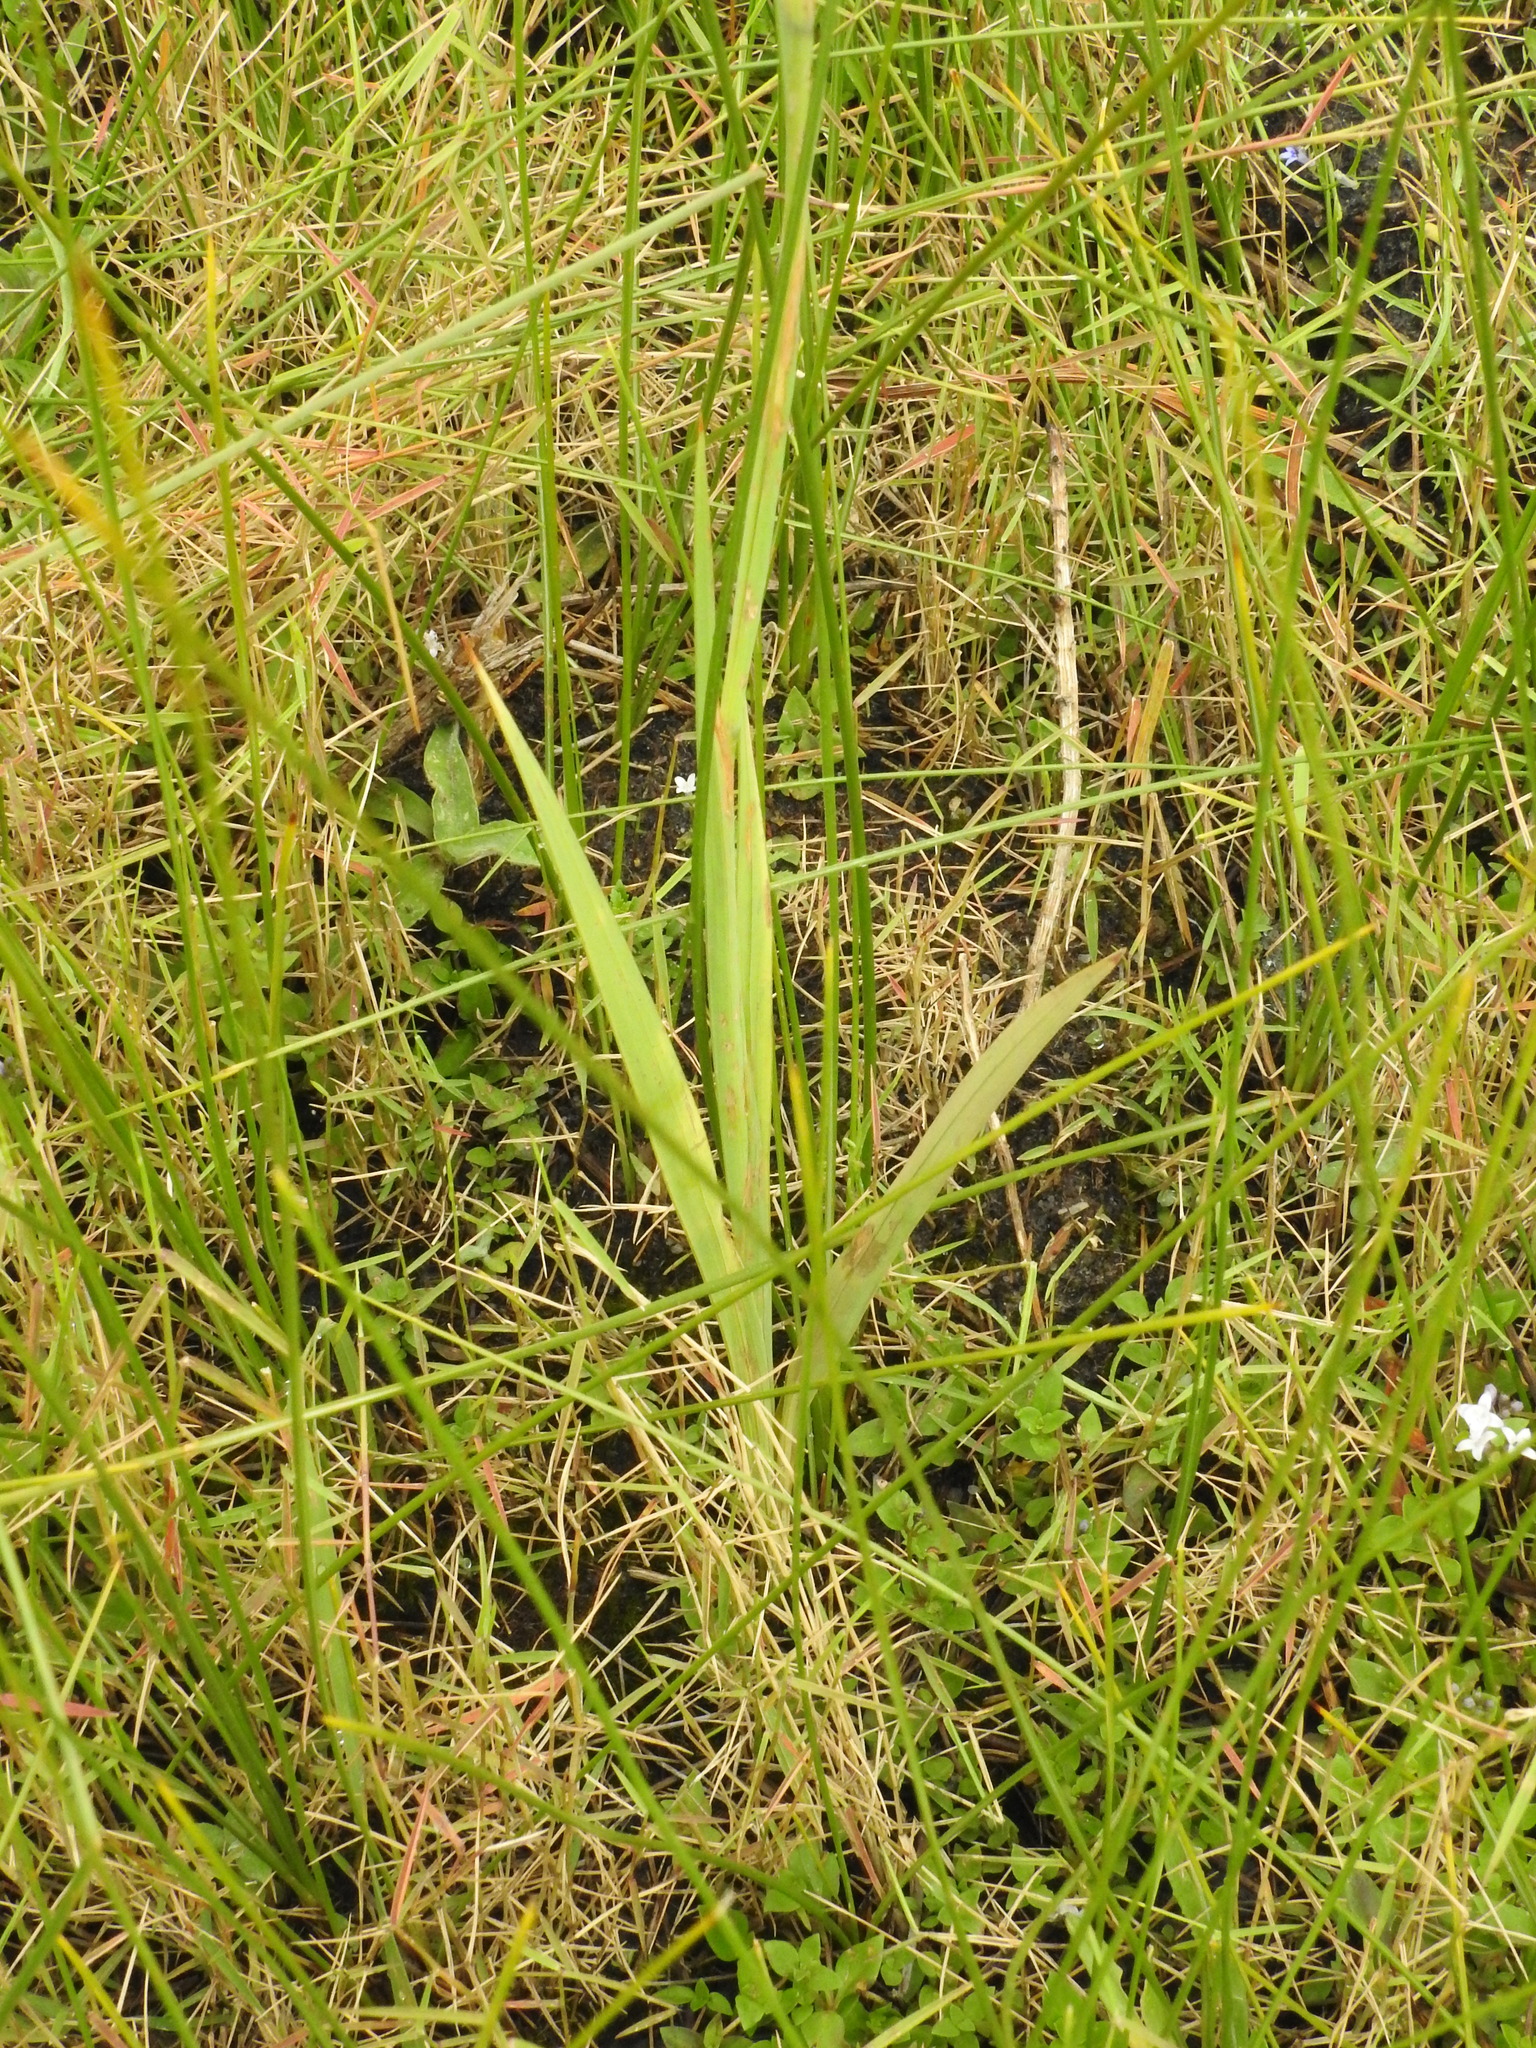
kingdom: Plantae
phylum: Tracheophyta
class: Liliopsida
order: Asparagales
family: Iridaceae
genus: Gladiolus
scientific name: Gladiolus ferrugineus
